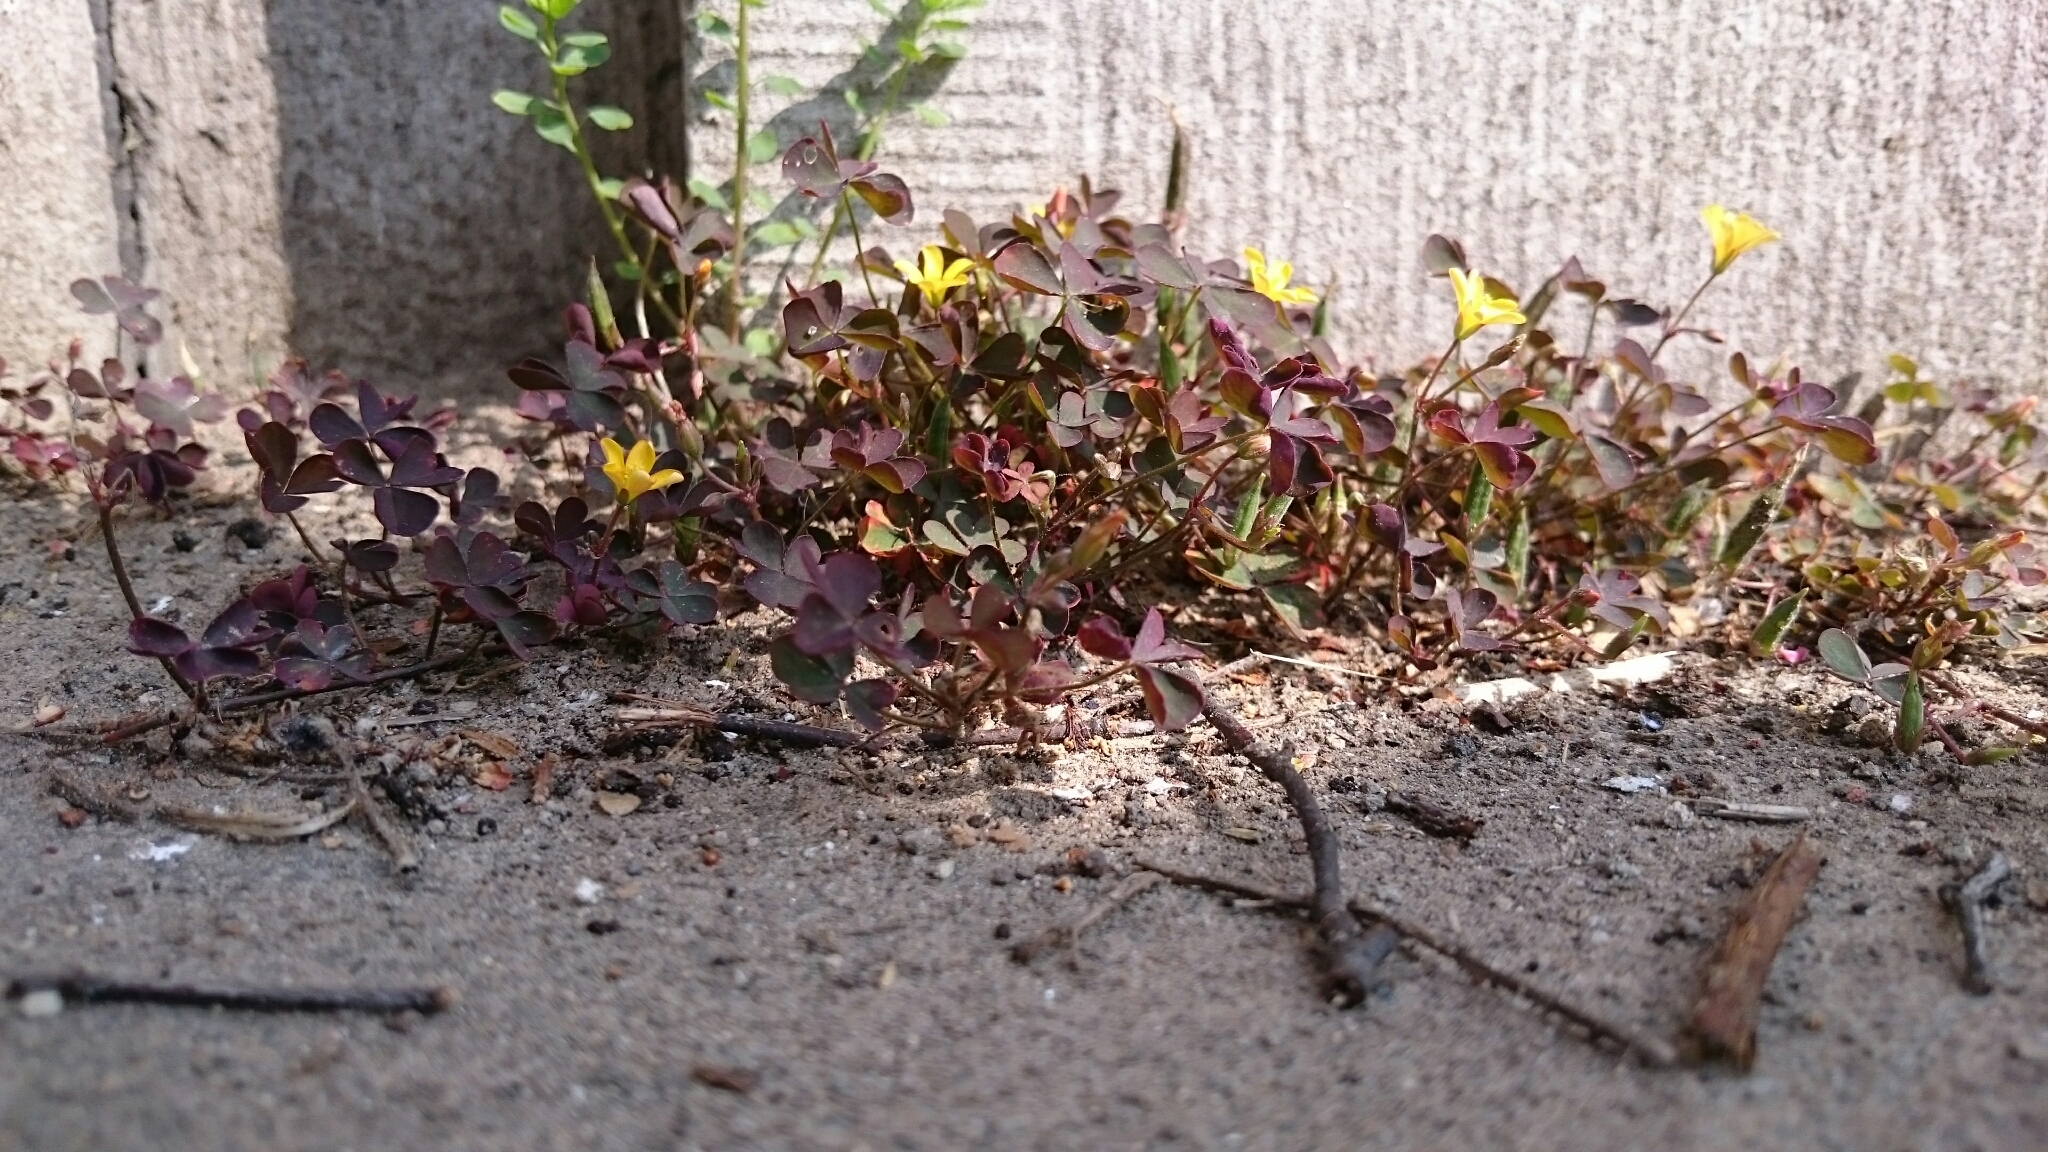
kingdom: Plantae
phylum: Tracheophyta
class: Magnoliopsida
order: Oxalidales
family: Oxalidaceae
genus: Oxalis
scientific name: Oxalis corniculata
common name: Procumbent yellow-sorrel
